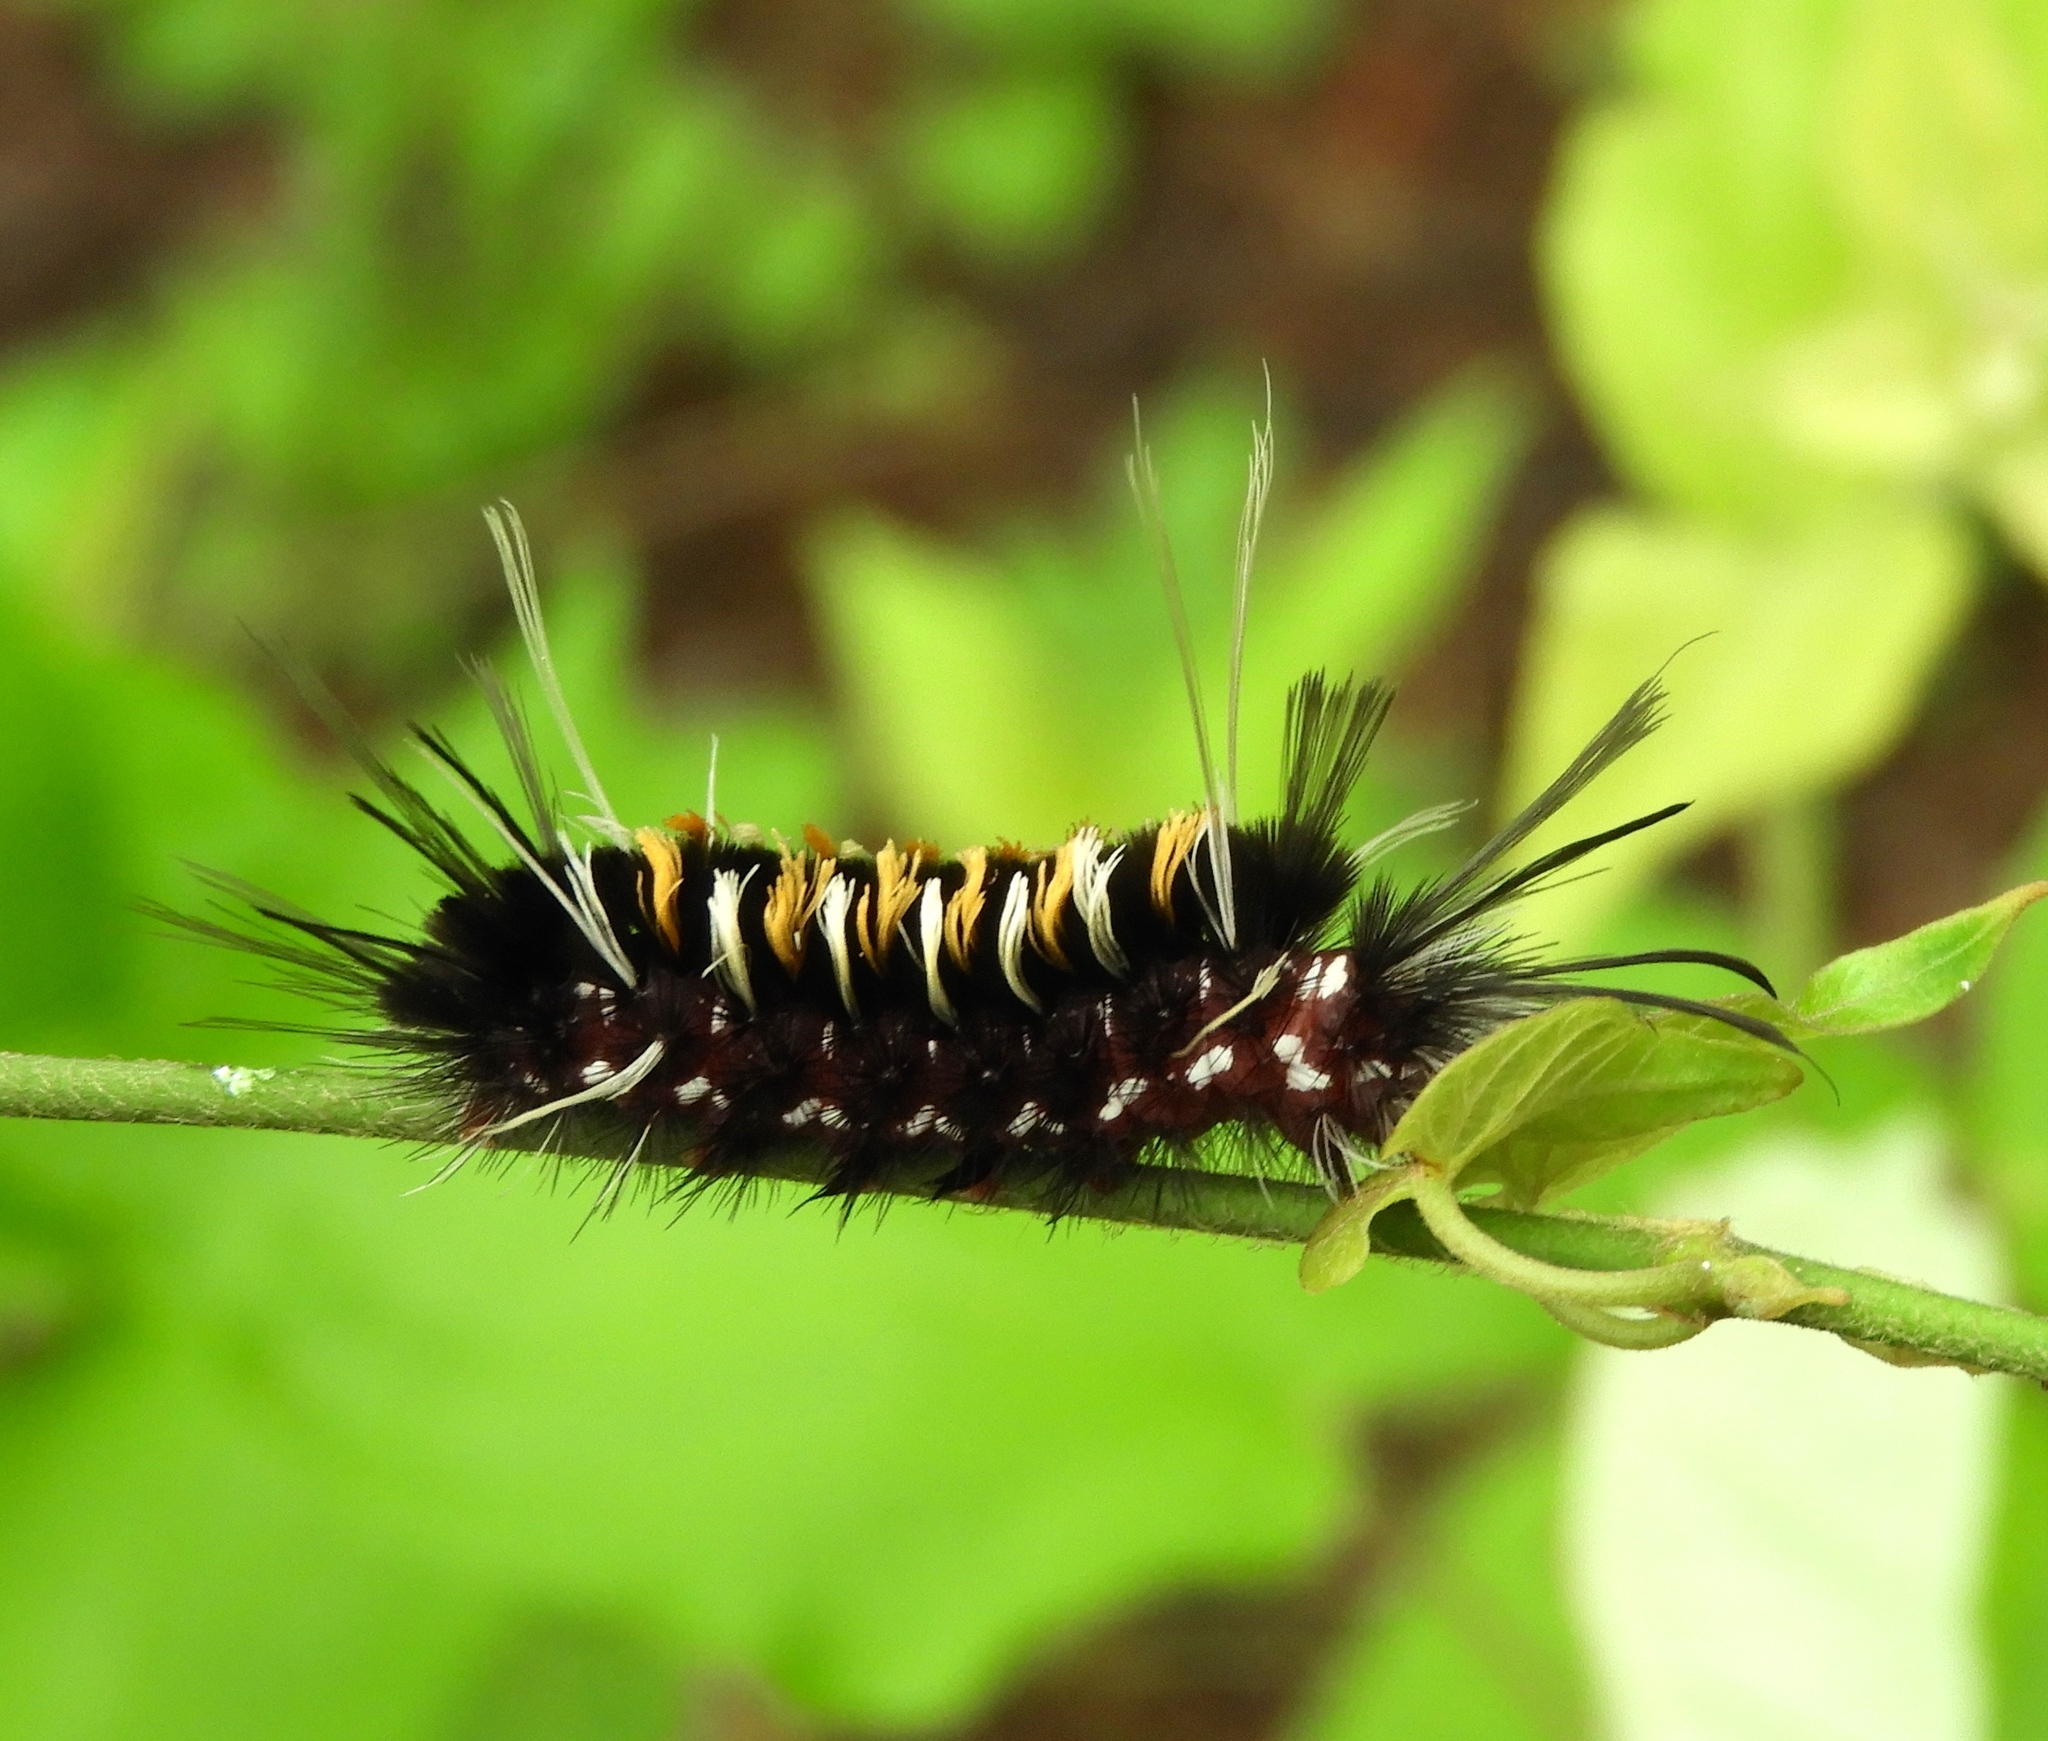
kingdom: Animalia
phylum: Arthropoda
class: Insecta
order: Lepidoptera
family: Erebidae
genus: Euchaetes
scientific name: Euchaetes
